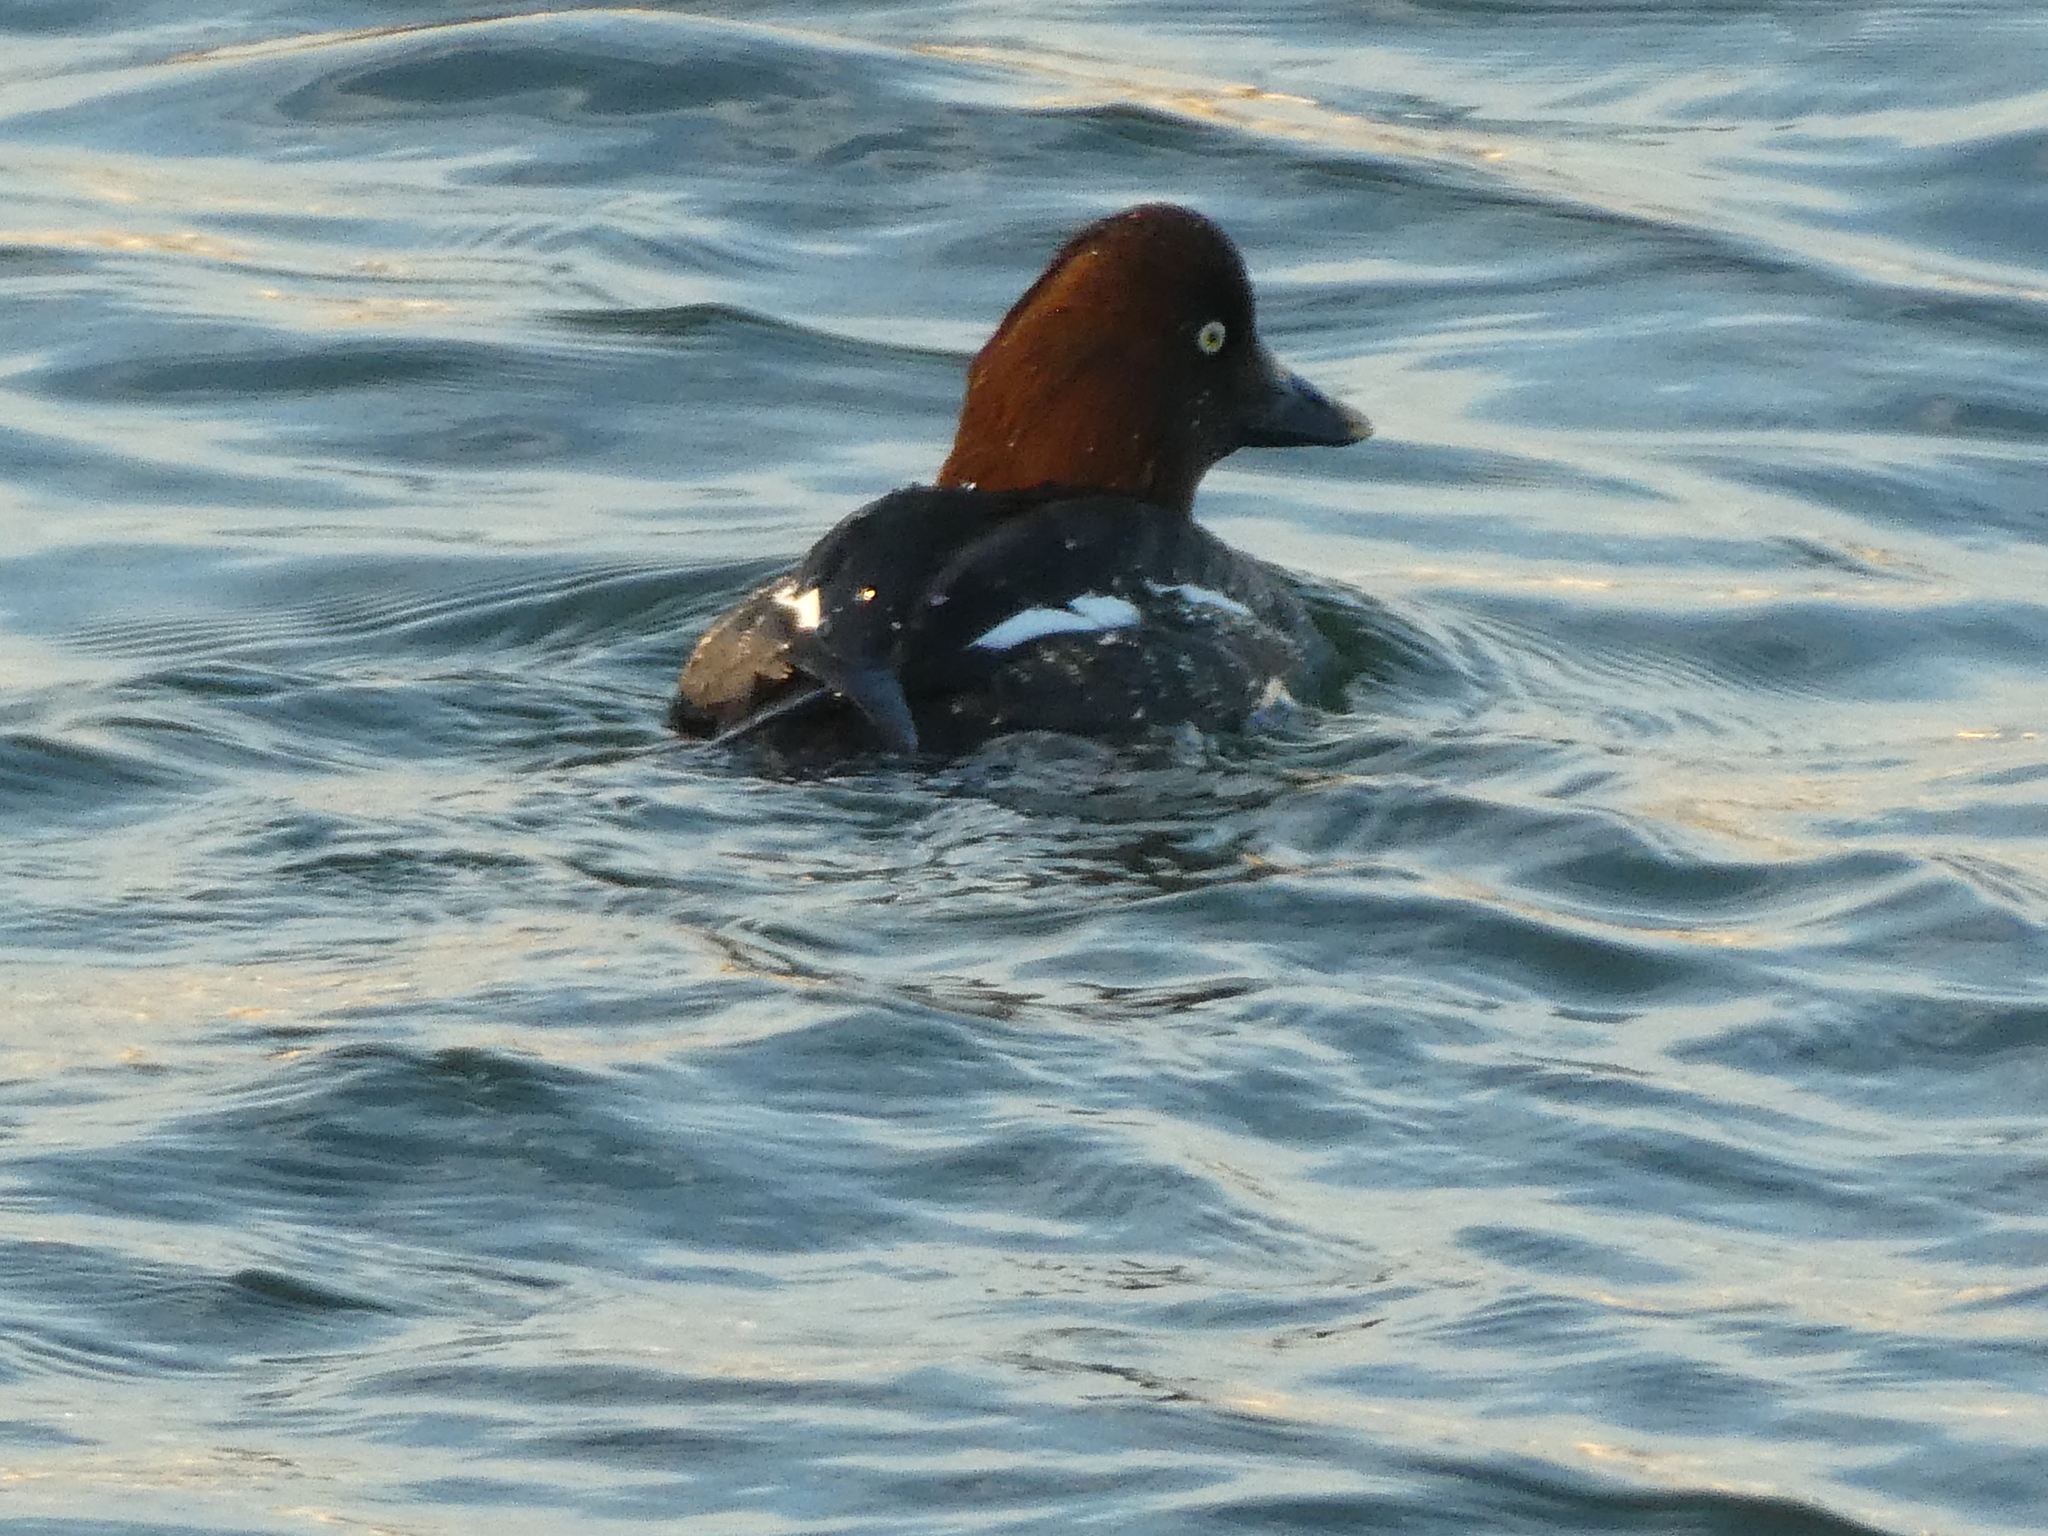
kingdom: Animalia
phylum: Chordata
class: Aves
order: Anseriformes
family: Anatidae
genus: Bucephala
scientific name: Bucephala clangula
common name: Common goldeneye
